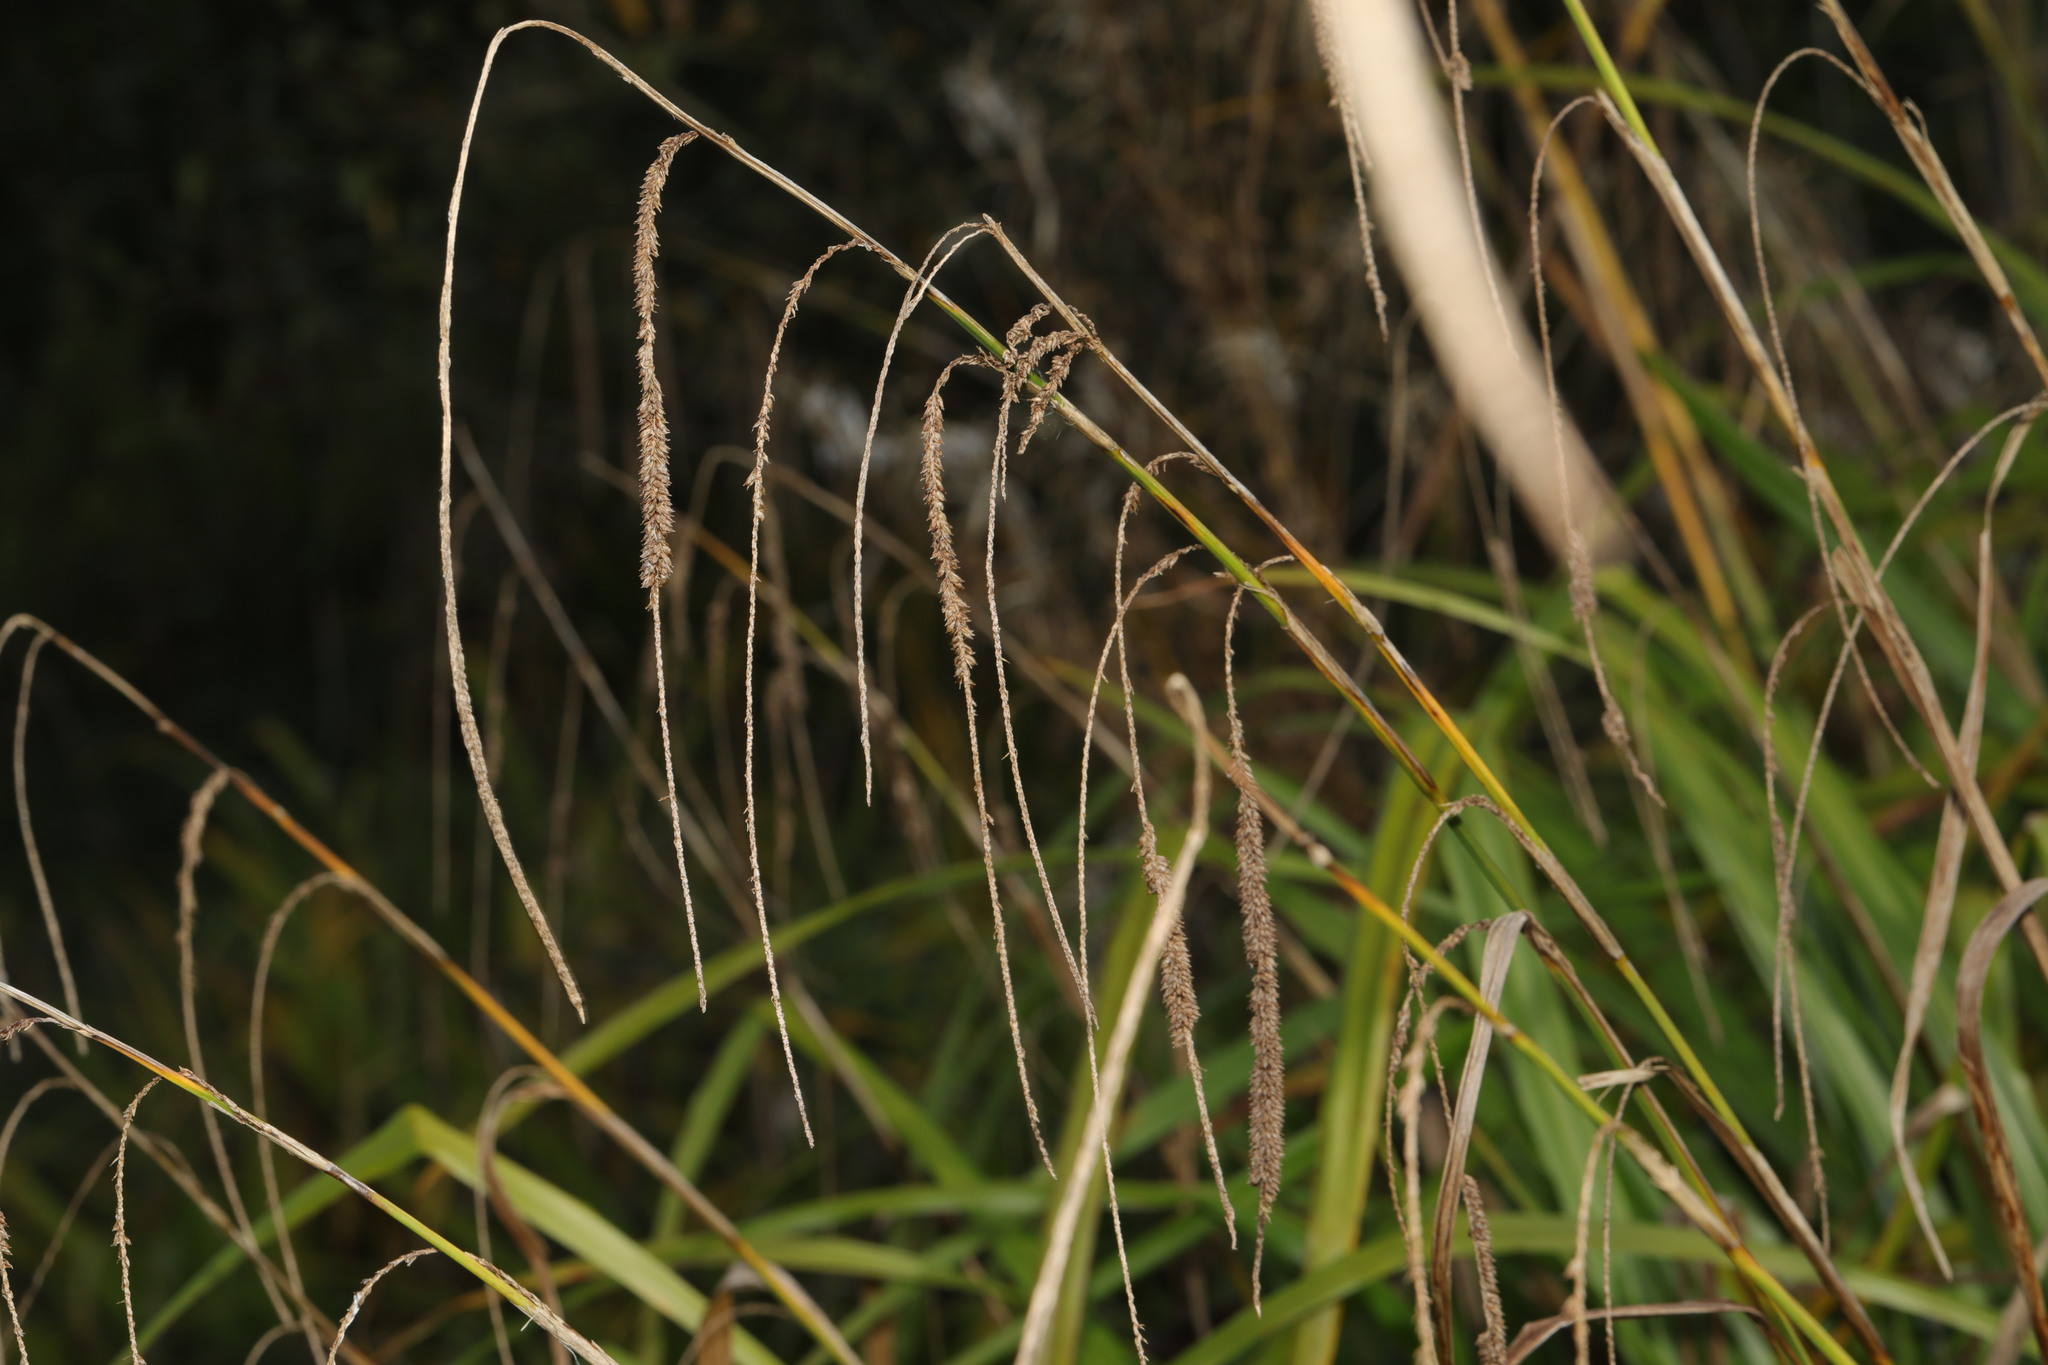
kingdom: Plantae
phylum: Tracheophyta
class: Liliopsida
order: Poales
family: Cyperaceae
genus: Carex
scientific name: Carex pendula
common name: Pendulous sedge
